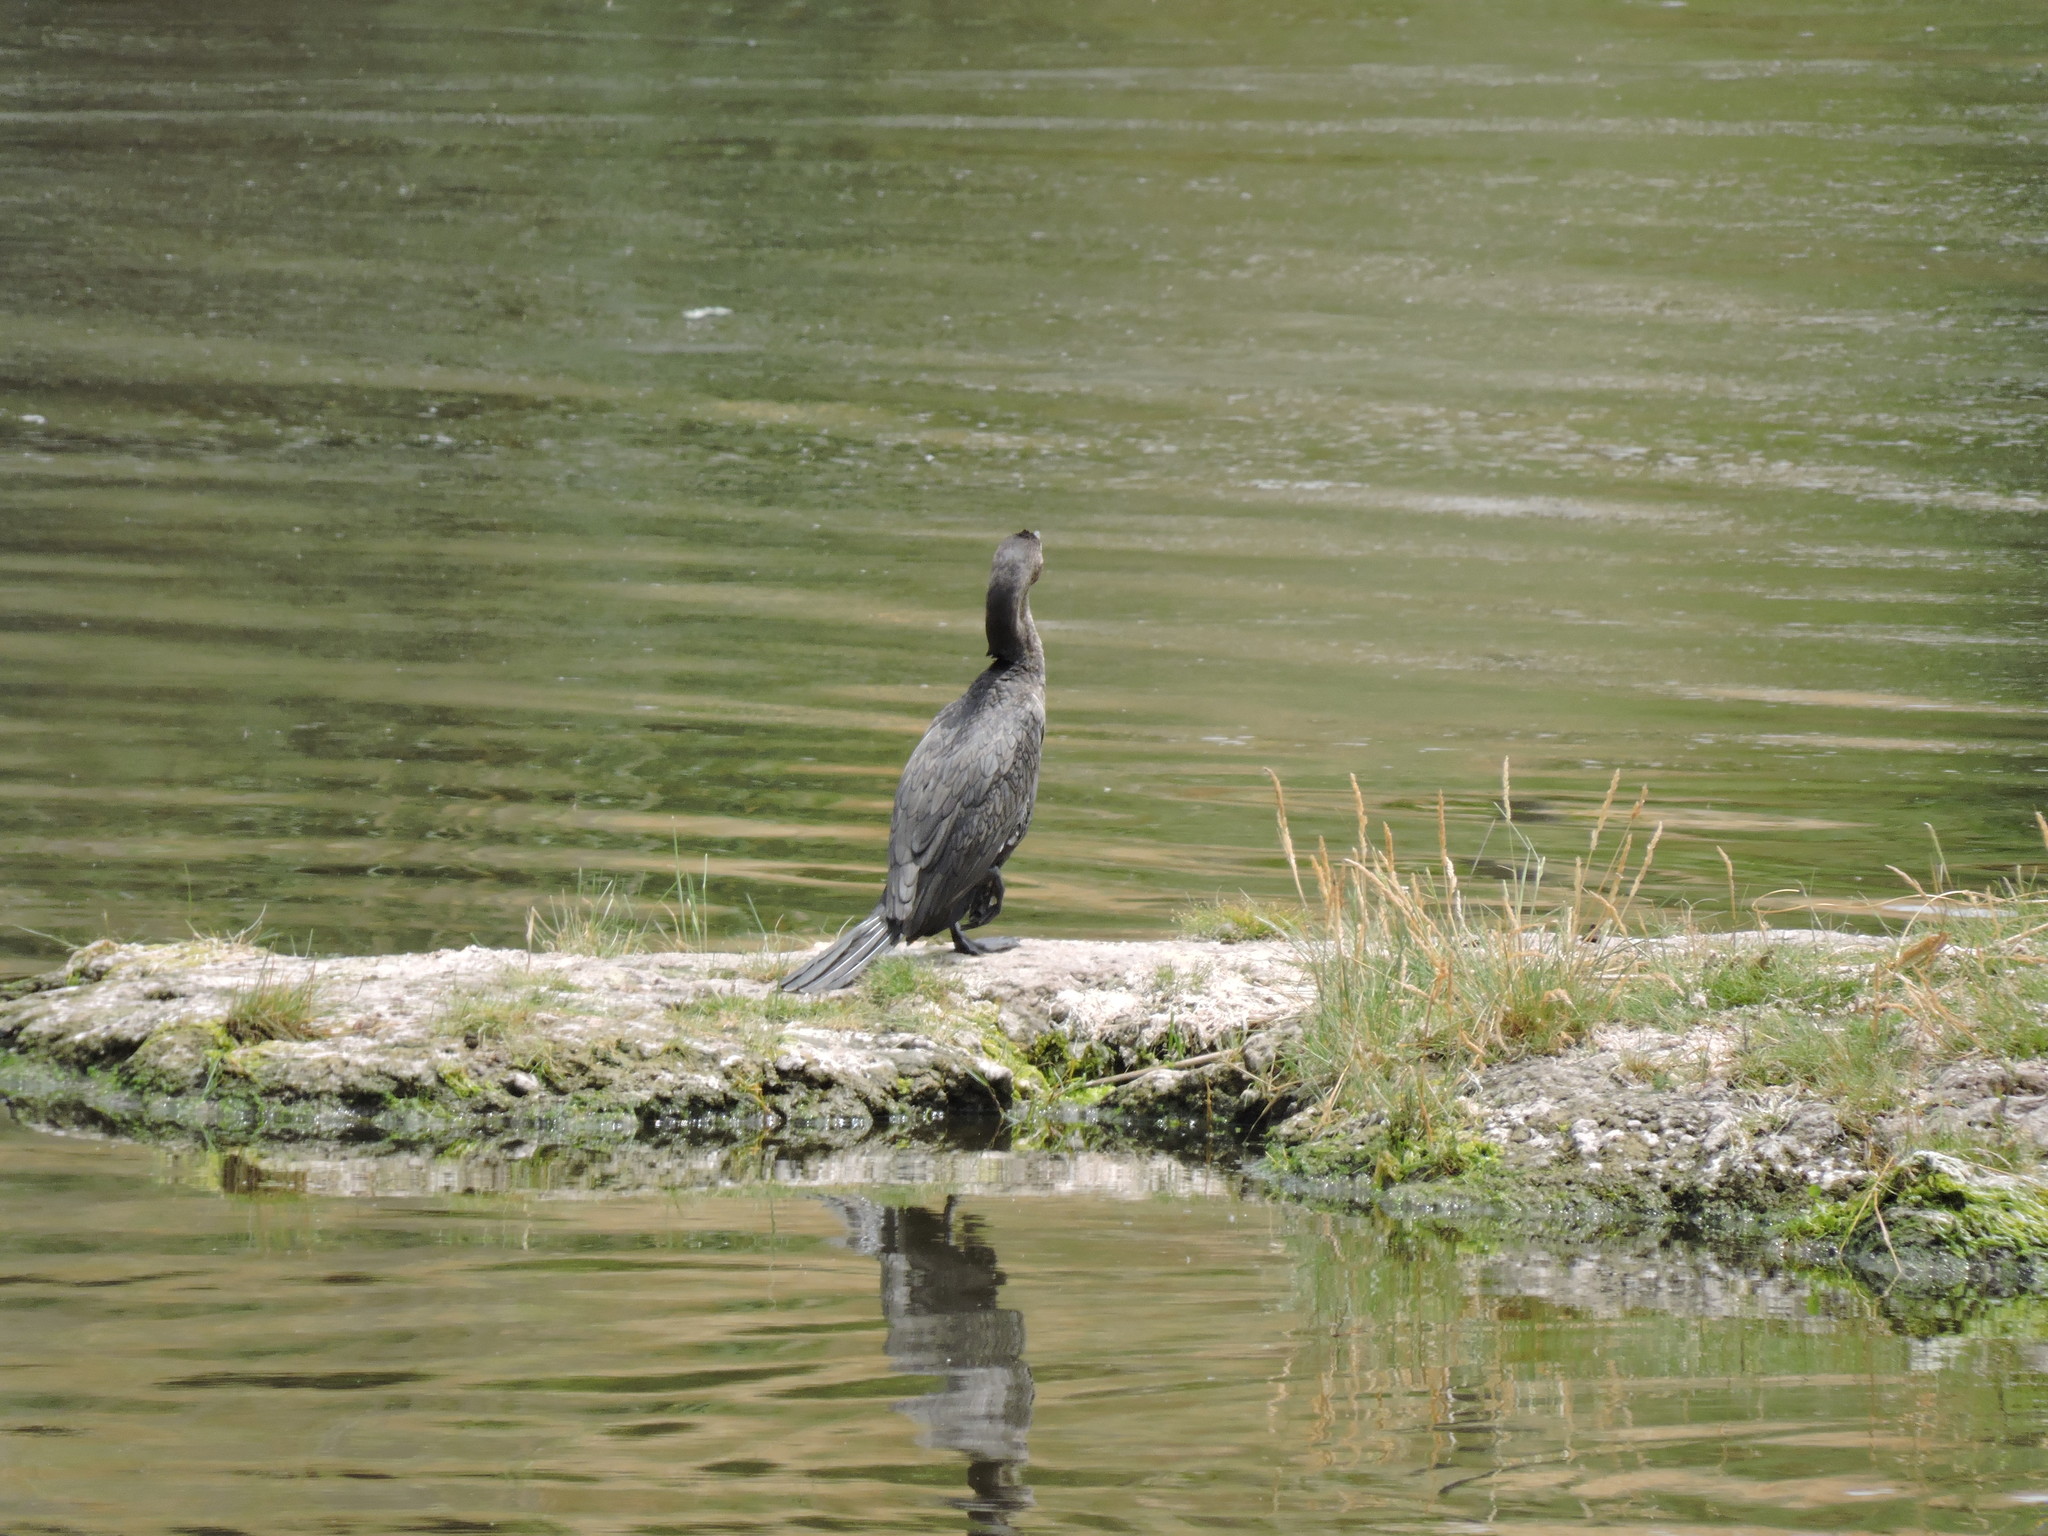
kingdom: Animalia
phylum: Chordata
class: Aves
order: Suliformes
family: Phalacrocoracidae
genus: Phalacrocorax
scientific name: Phalacrocorax brasilianus
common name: Neotropic cormorant
